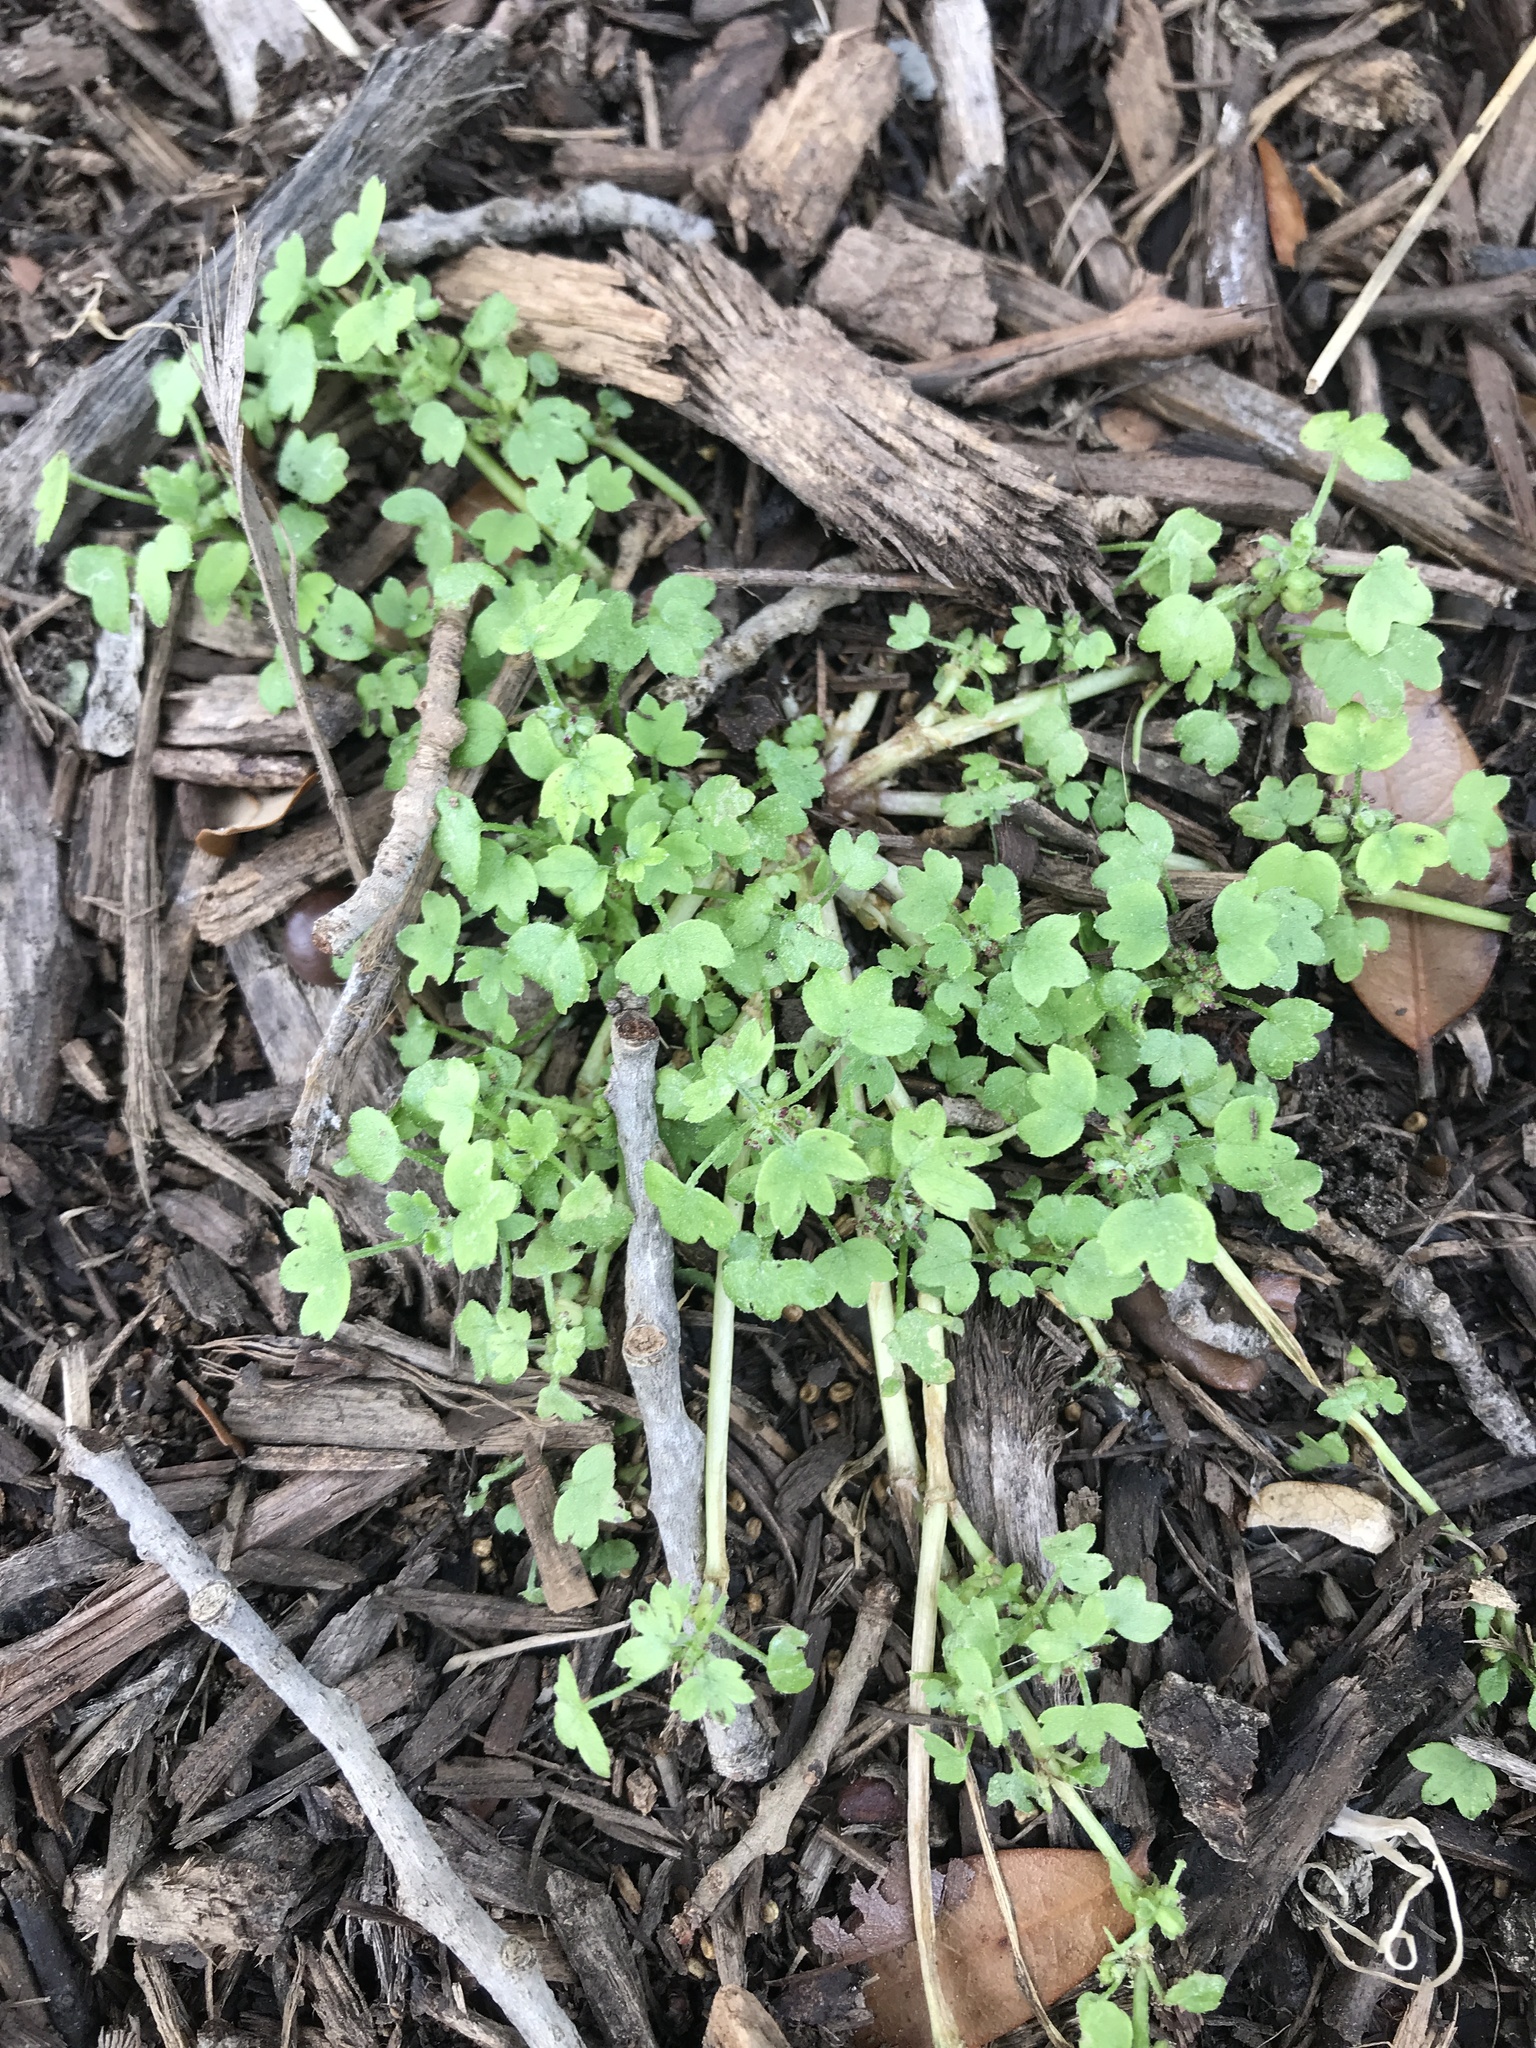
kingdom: Plantae
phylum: Tracheophyta
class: Magnoliopsida
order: Apiales
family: Apiaceae
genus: Bowlesia
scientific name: Bowlesia incana
